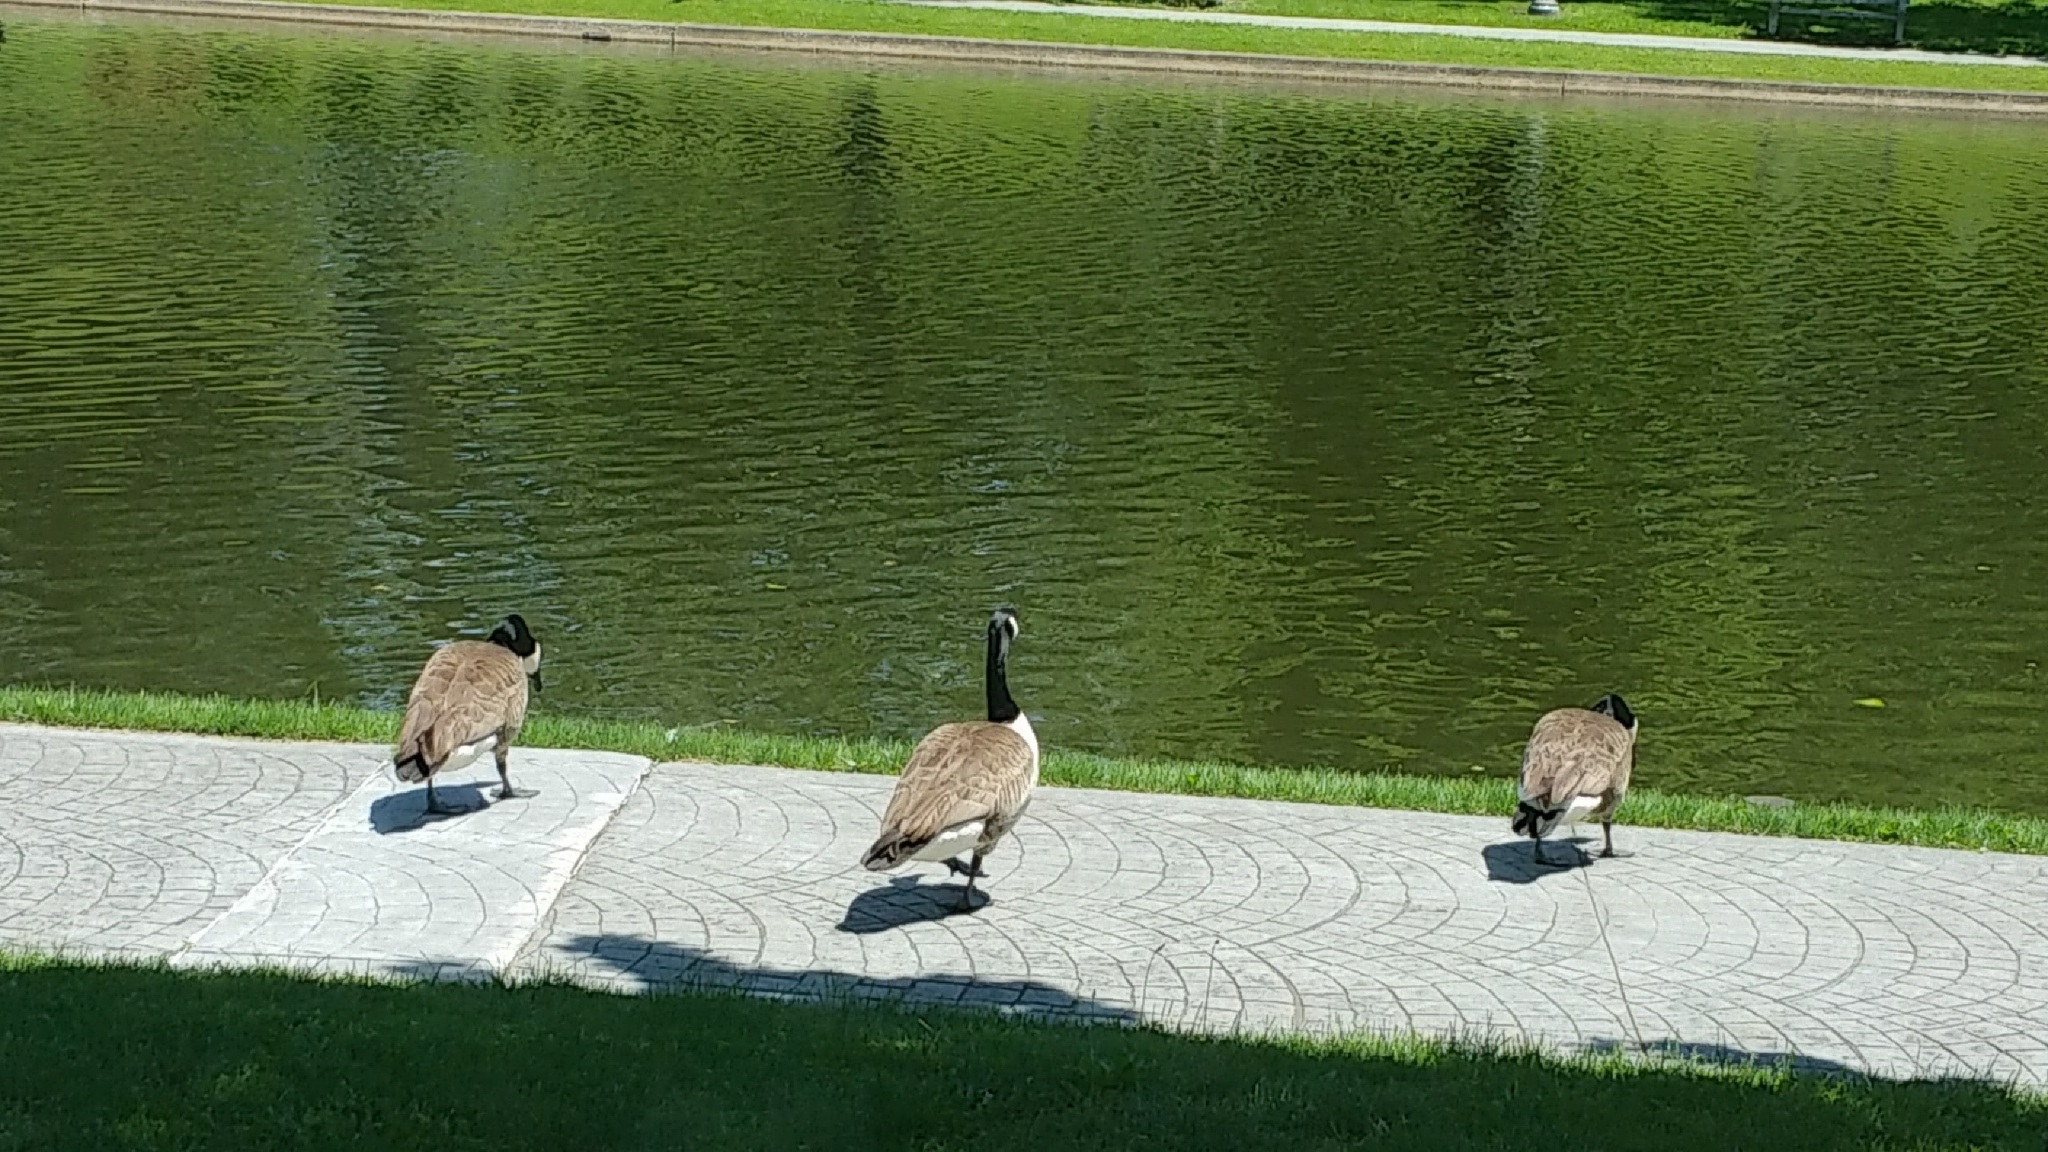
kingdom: Animalia
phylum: Chordata
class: Aves
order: Anseriformes
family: Anatidae
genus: Branta
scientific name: Branta canadensis
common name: Canada goose
